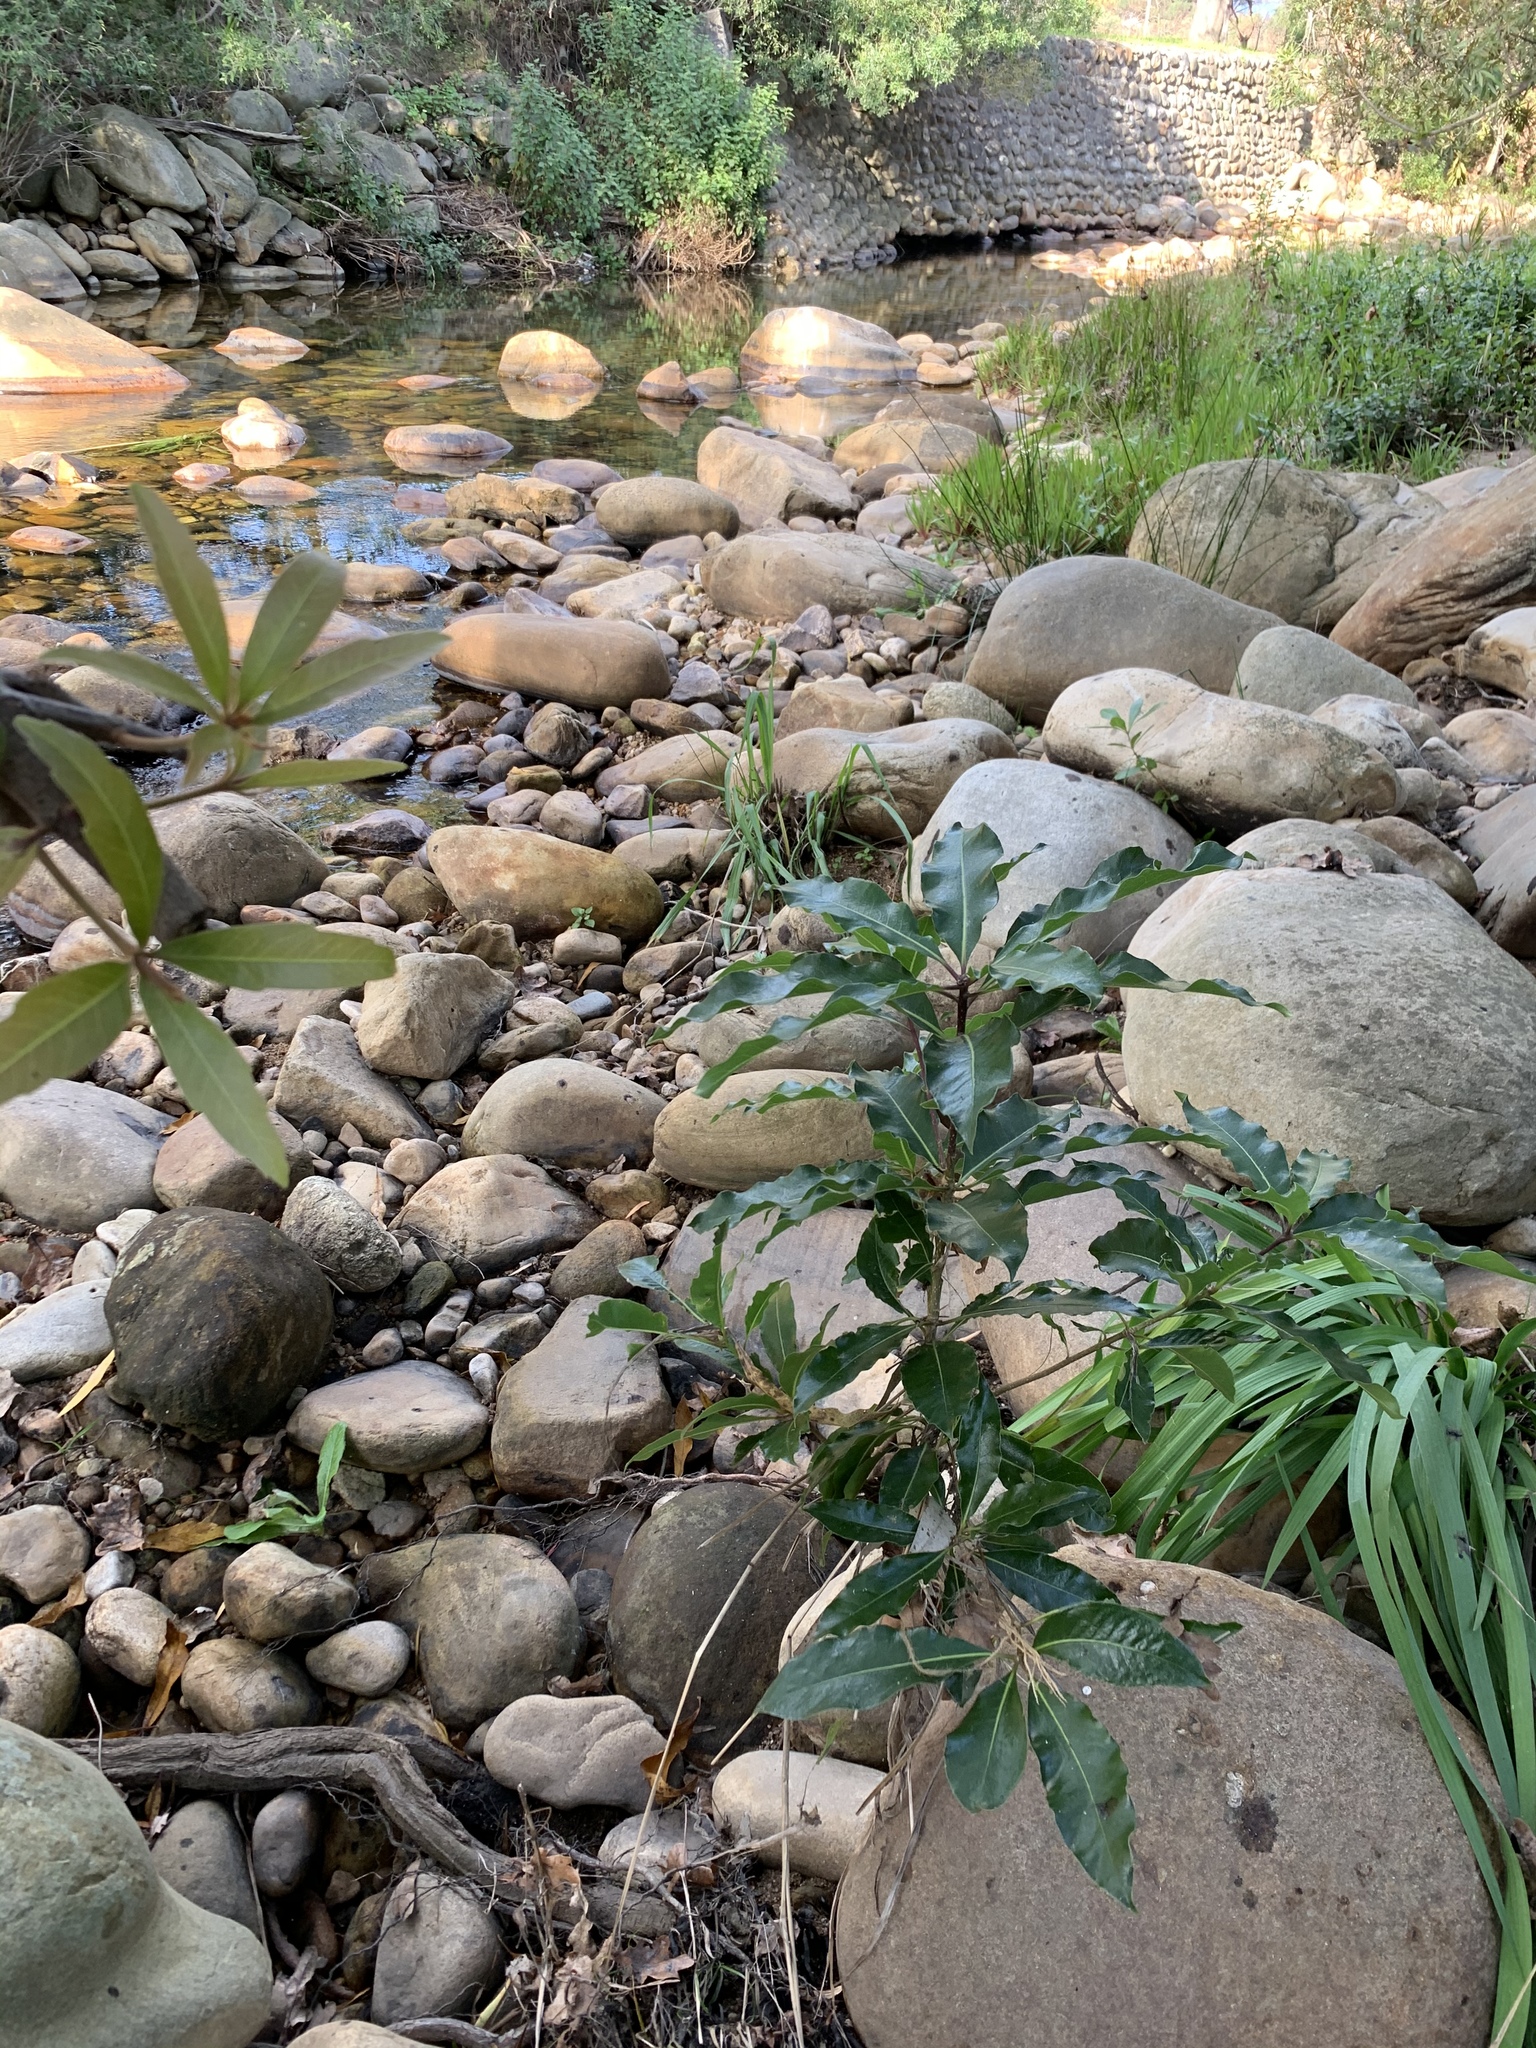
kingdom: Plantae
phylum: Tracheophyta
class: Magnoliopsida
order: Apiales
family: Pittosporaceae
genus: Pittosporum
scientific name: Pittosporum undulatum
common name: Australian cheesewood
